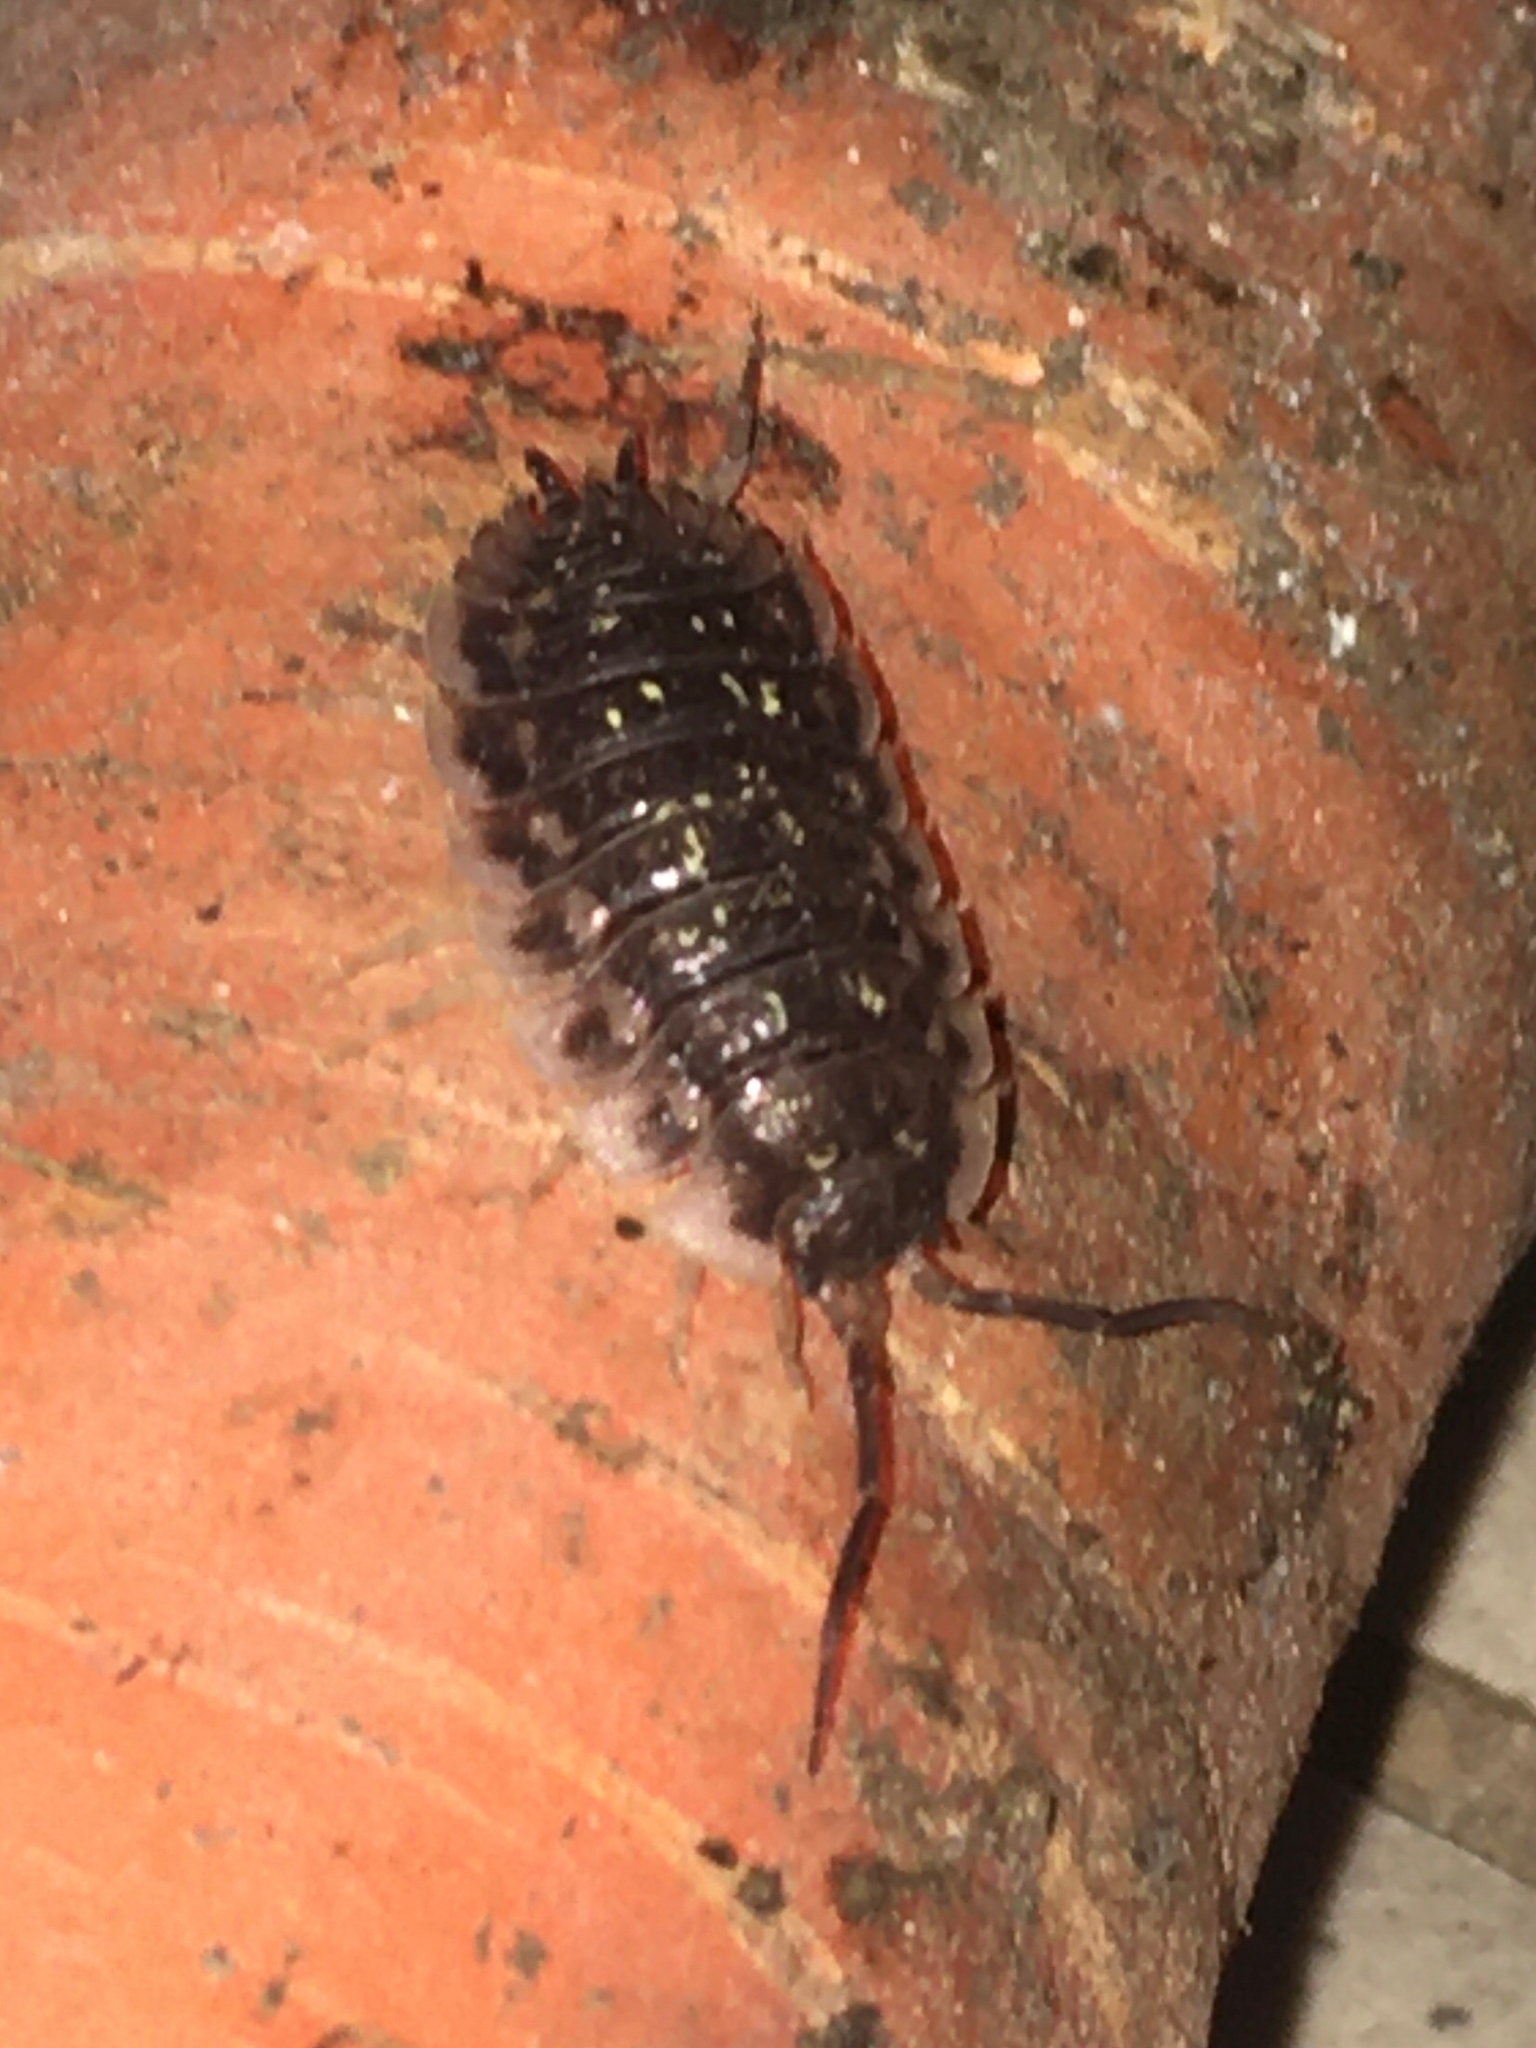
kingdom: Animalia
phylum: Arthropoda
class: Malacostraca
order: Isopoda
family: Oniscidae
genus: Oniscus
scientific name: Oniscus asellus
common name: Common shiny woodlouse
